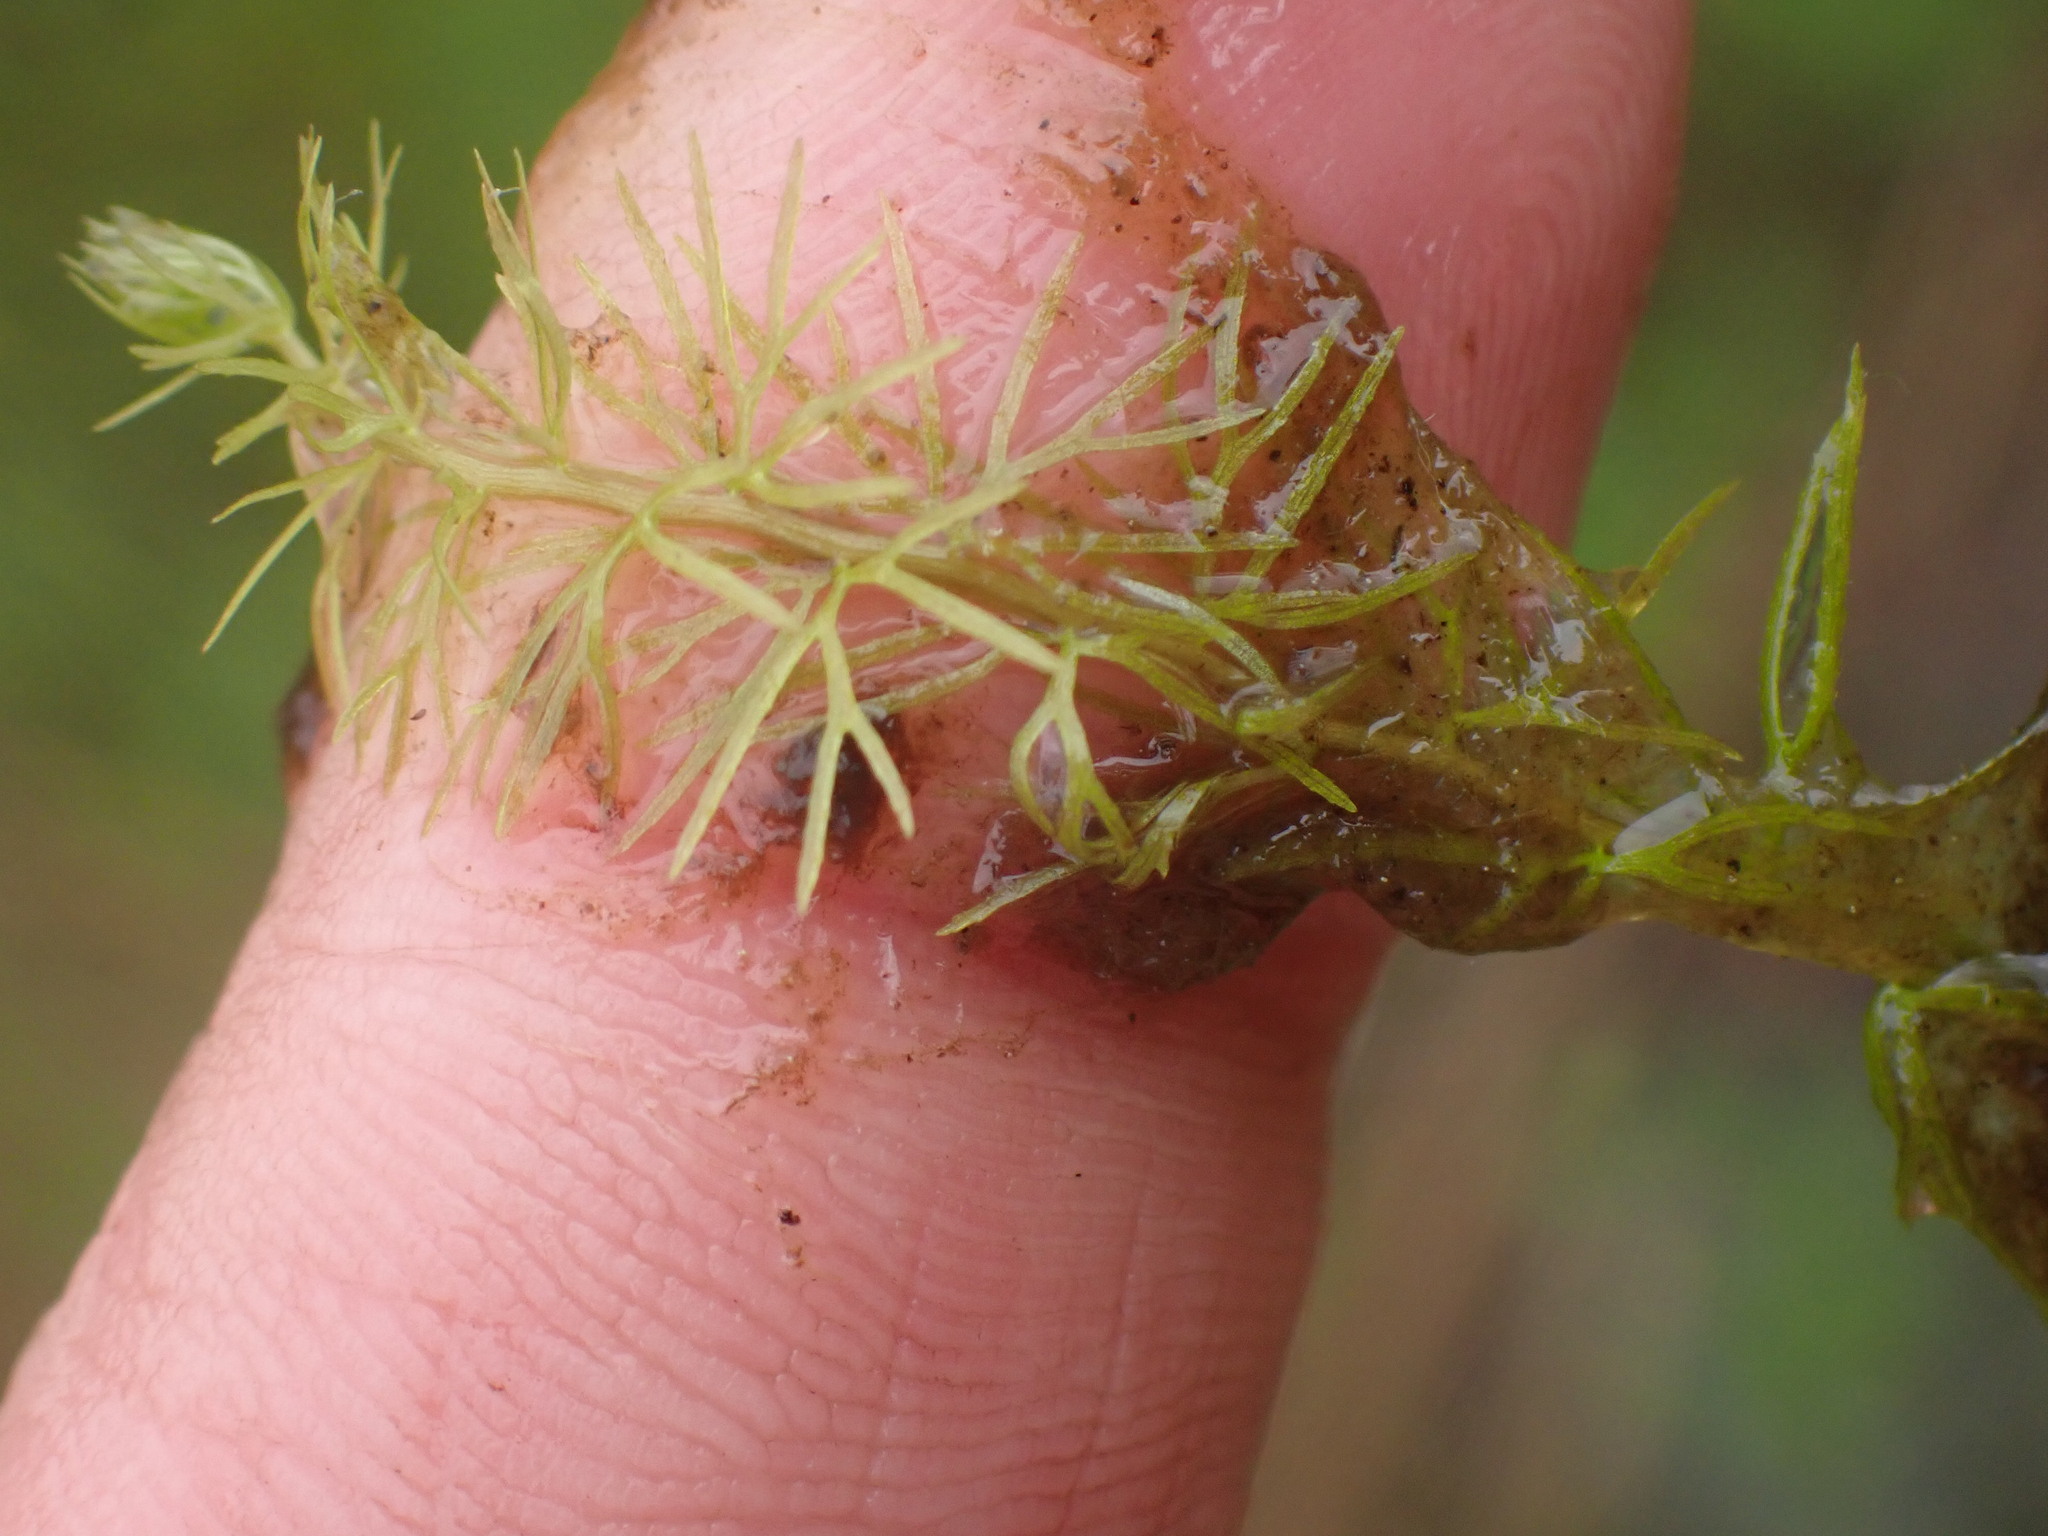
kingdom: Plantae
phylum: Tracheophyta
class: Magnoliopsida
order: Lamiales
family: Lentibulariaceae
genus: Utricularia
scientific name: Utricularia intermedia
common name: Intermediate bladderwort
